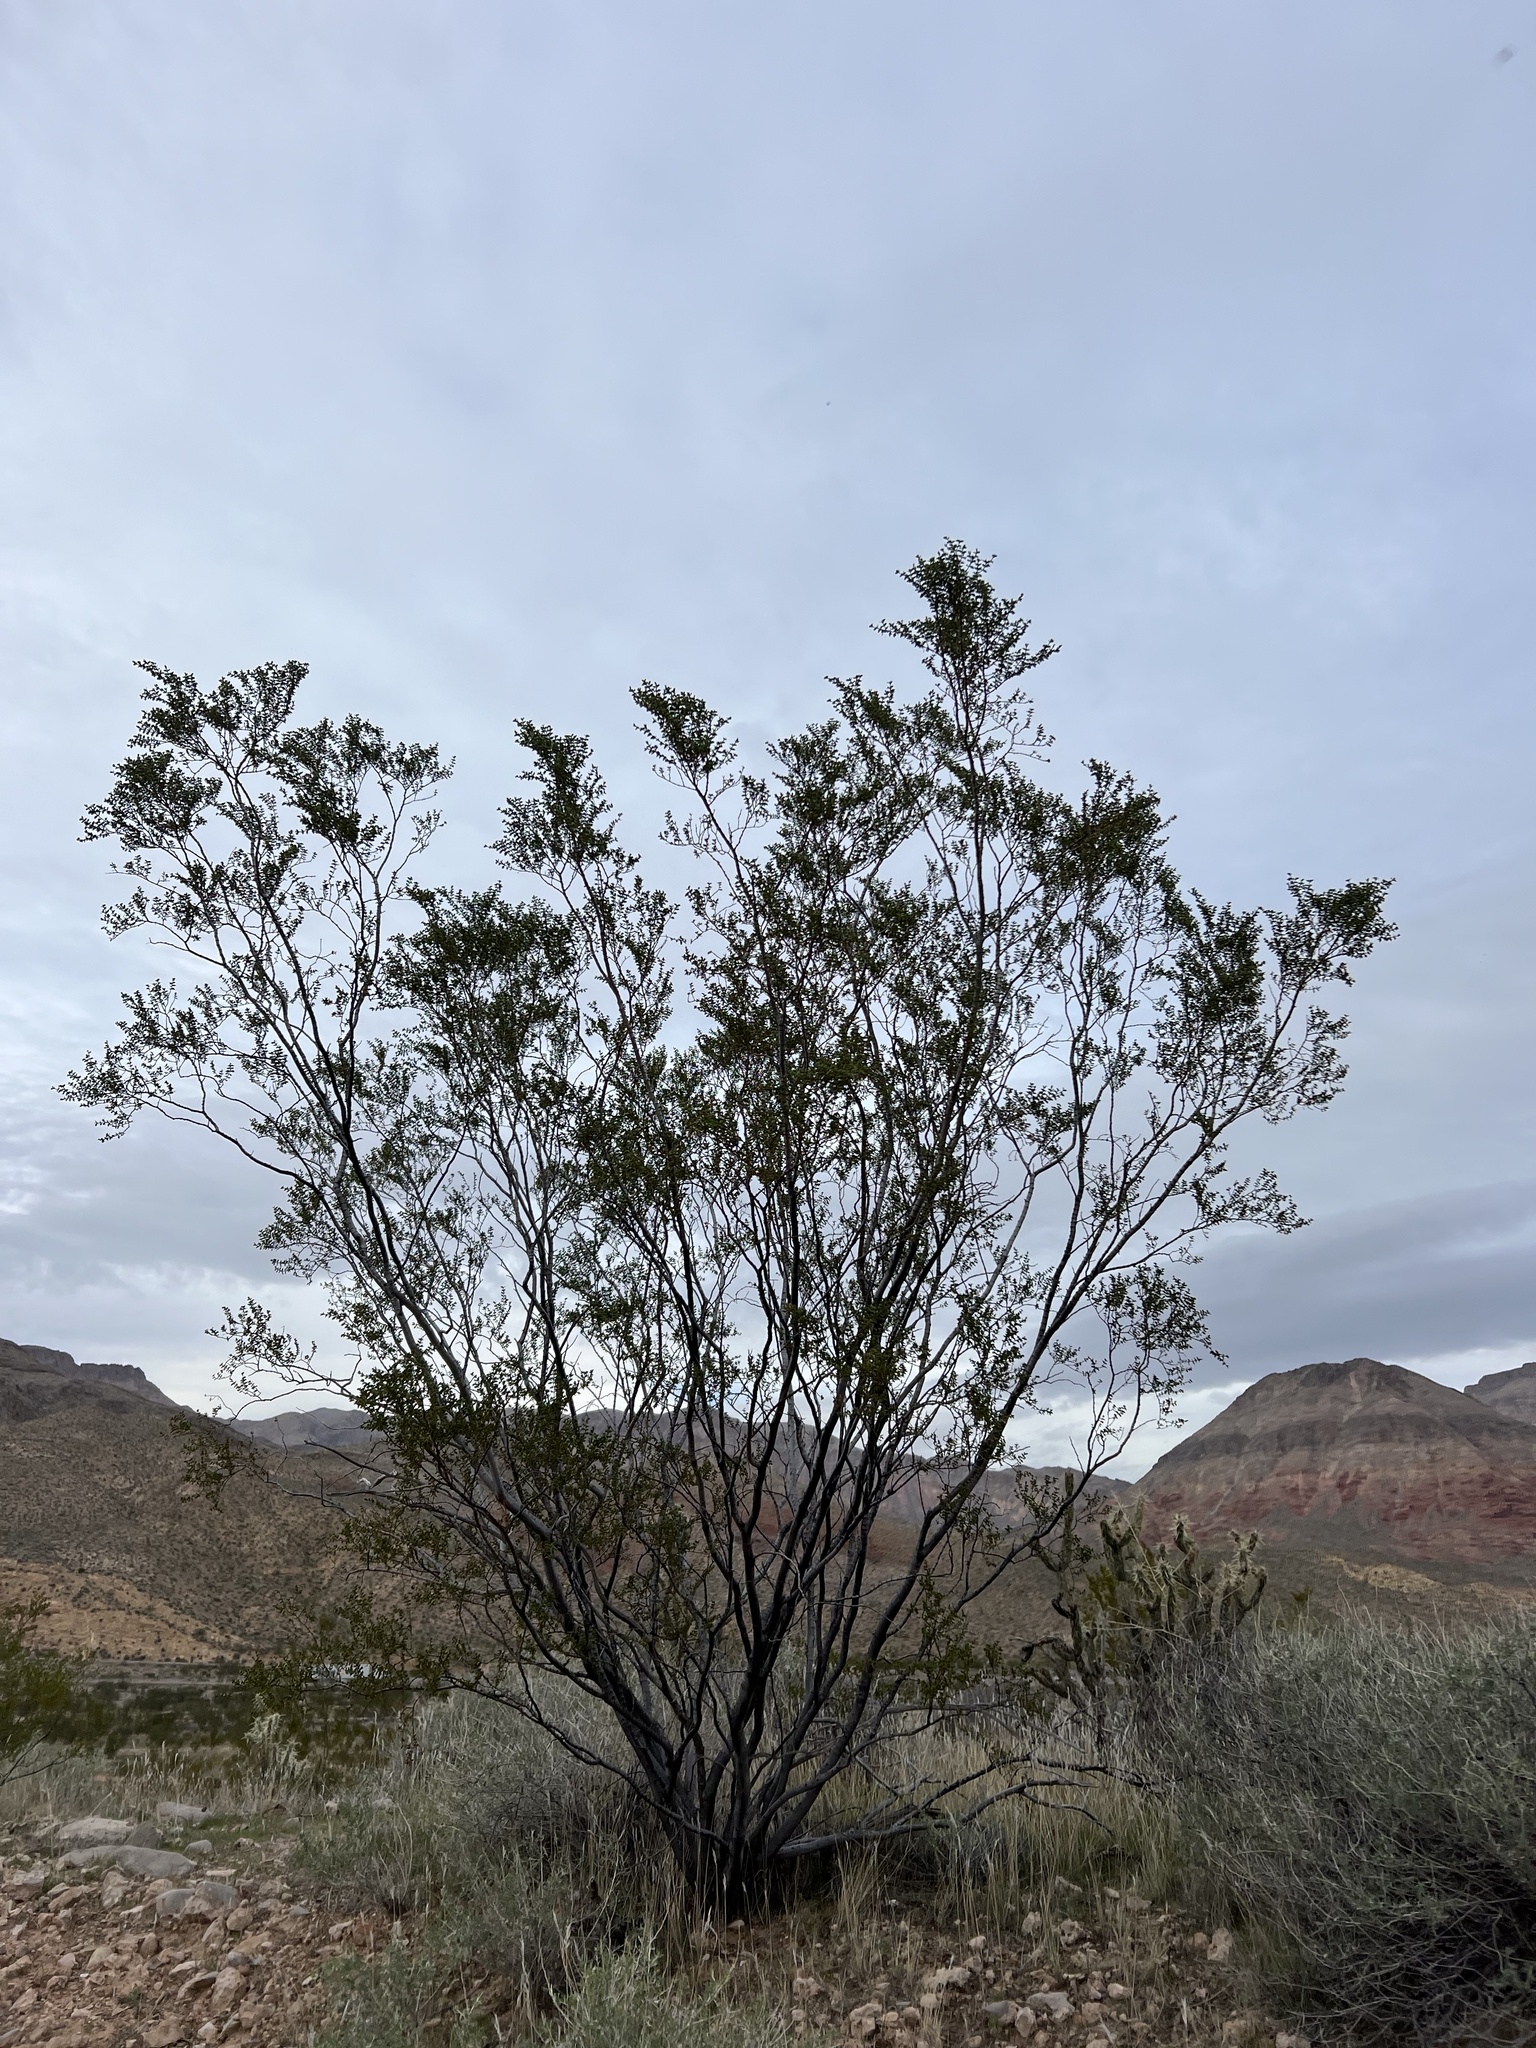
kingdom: Plantae
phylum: Tracheophyta
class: Magnoliopsida
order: Zygophyllales
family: Zygophyllaceae
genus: Larrea
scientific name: Larrea tridentata
